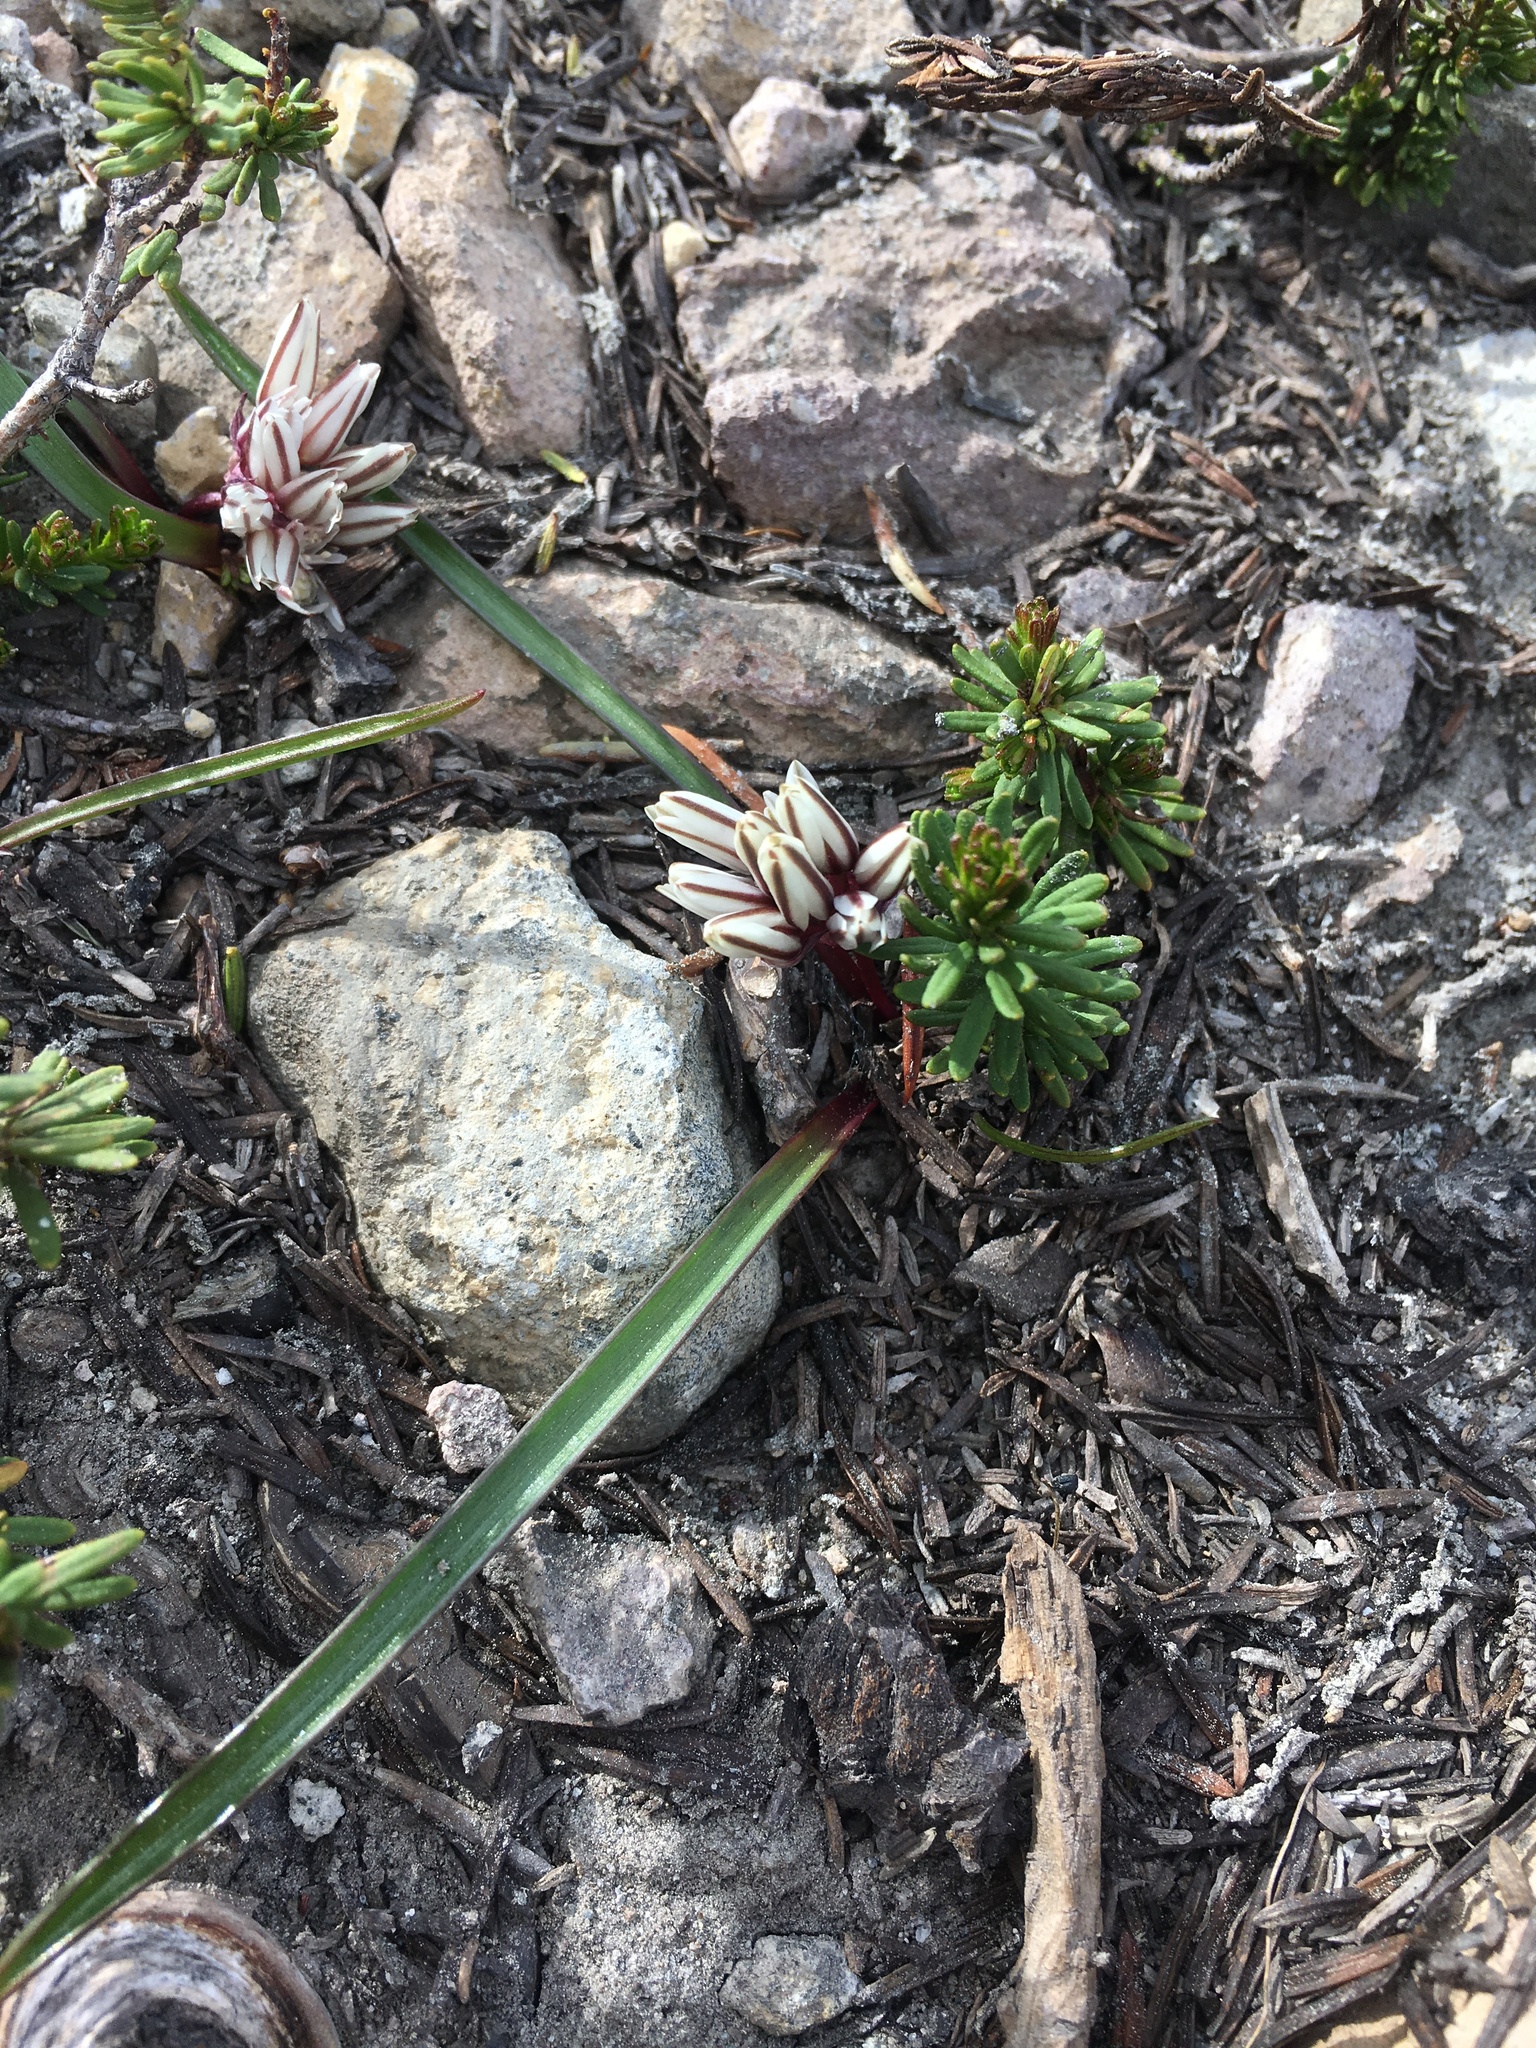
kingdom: Plantae
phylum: Tracheophyta
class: Liliopsida
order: Asparagales
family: Amaryllidaceae
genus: Allium
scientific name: Allium obtusum
